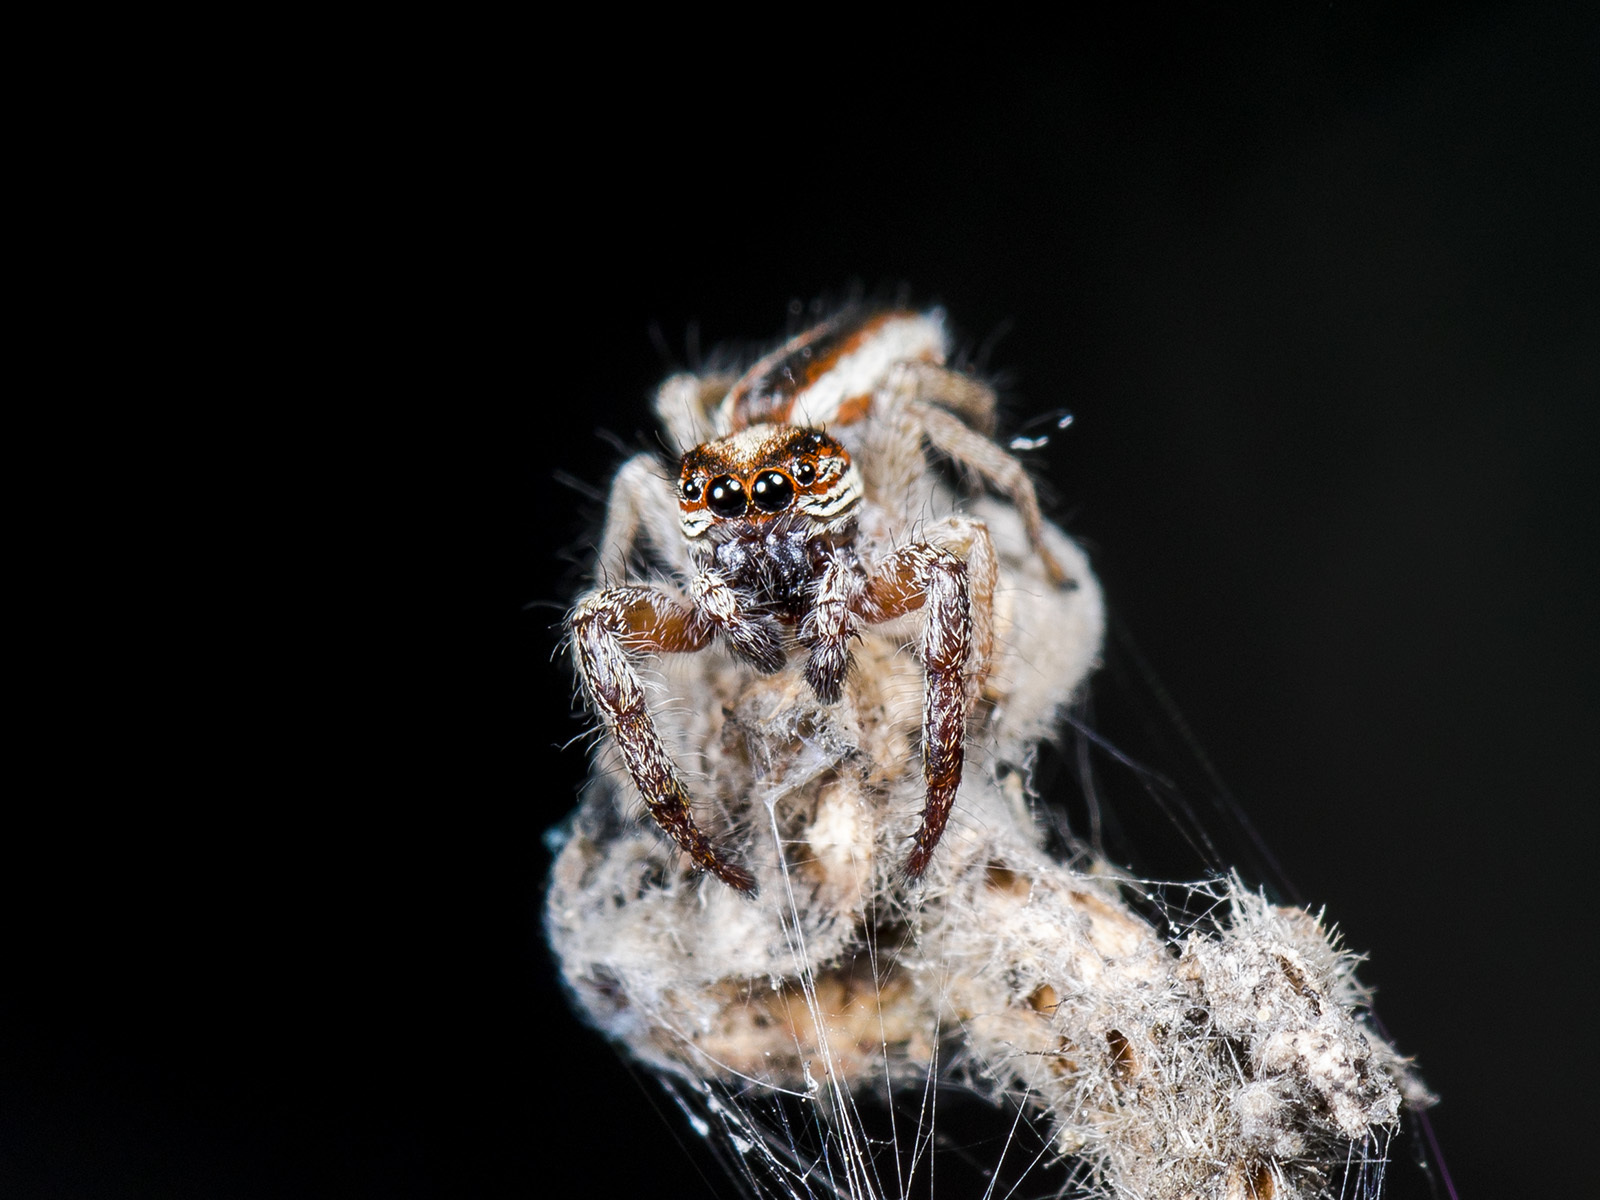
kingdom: Animalia
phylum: Arthropoda
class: Arachnida
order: Araneae
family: Salticidae
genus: Rudakius
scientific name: Rudakius cinctus
